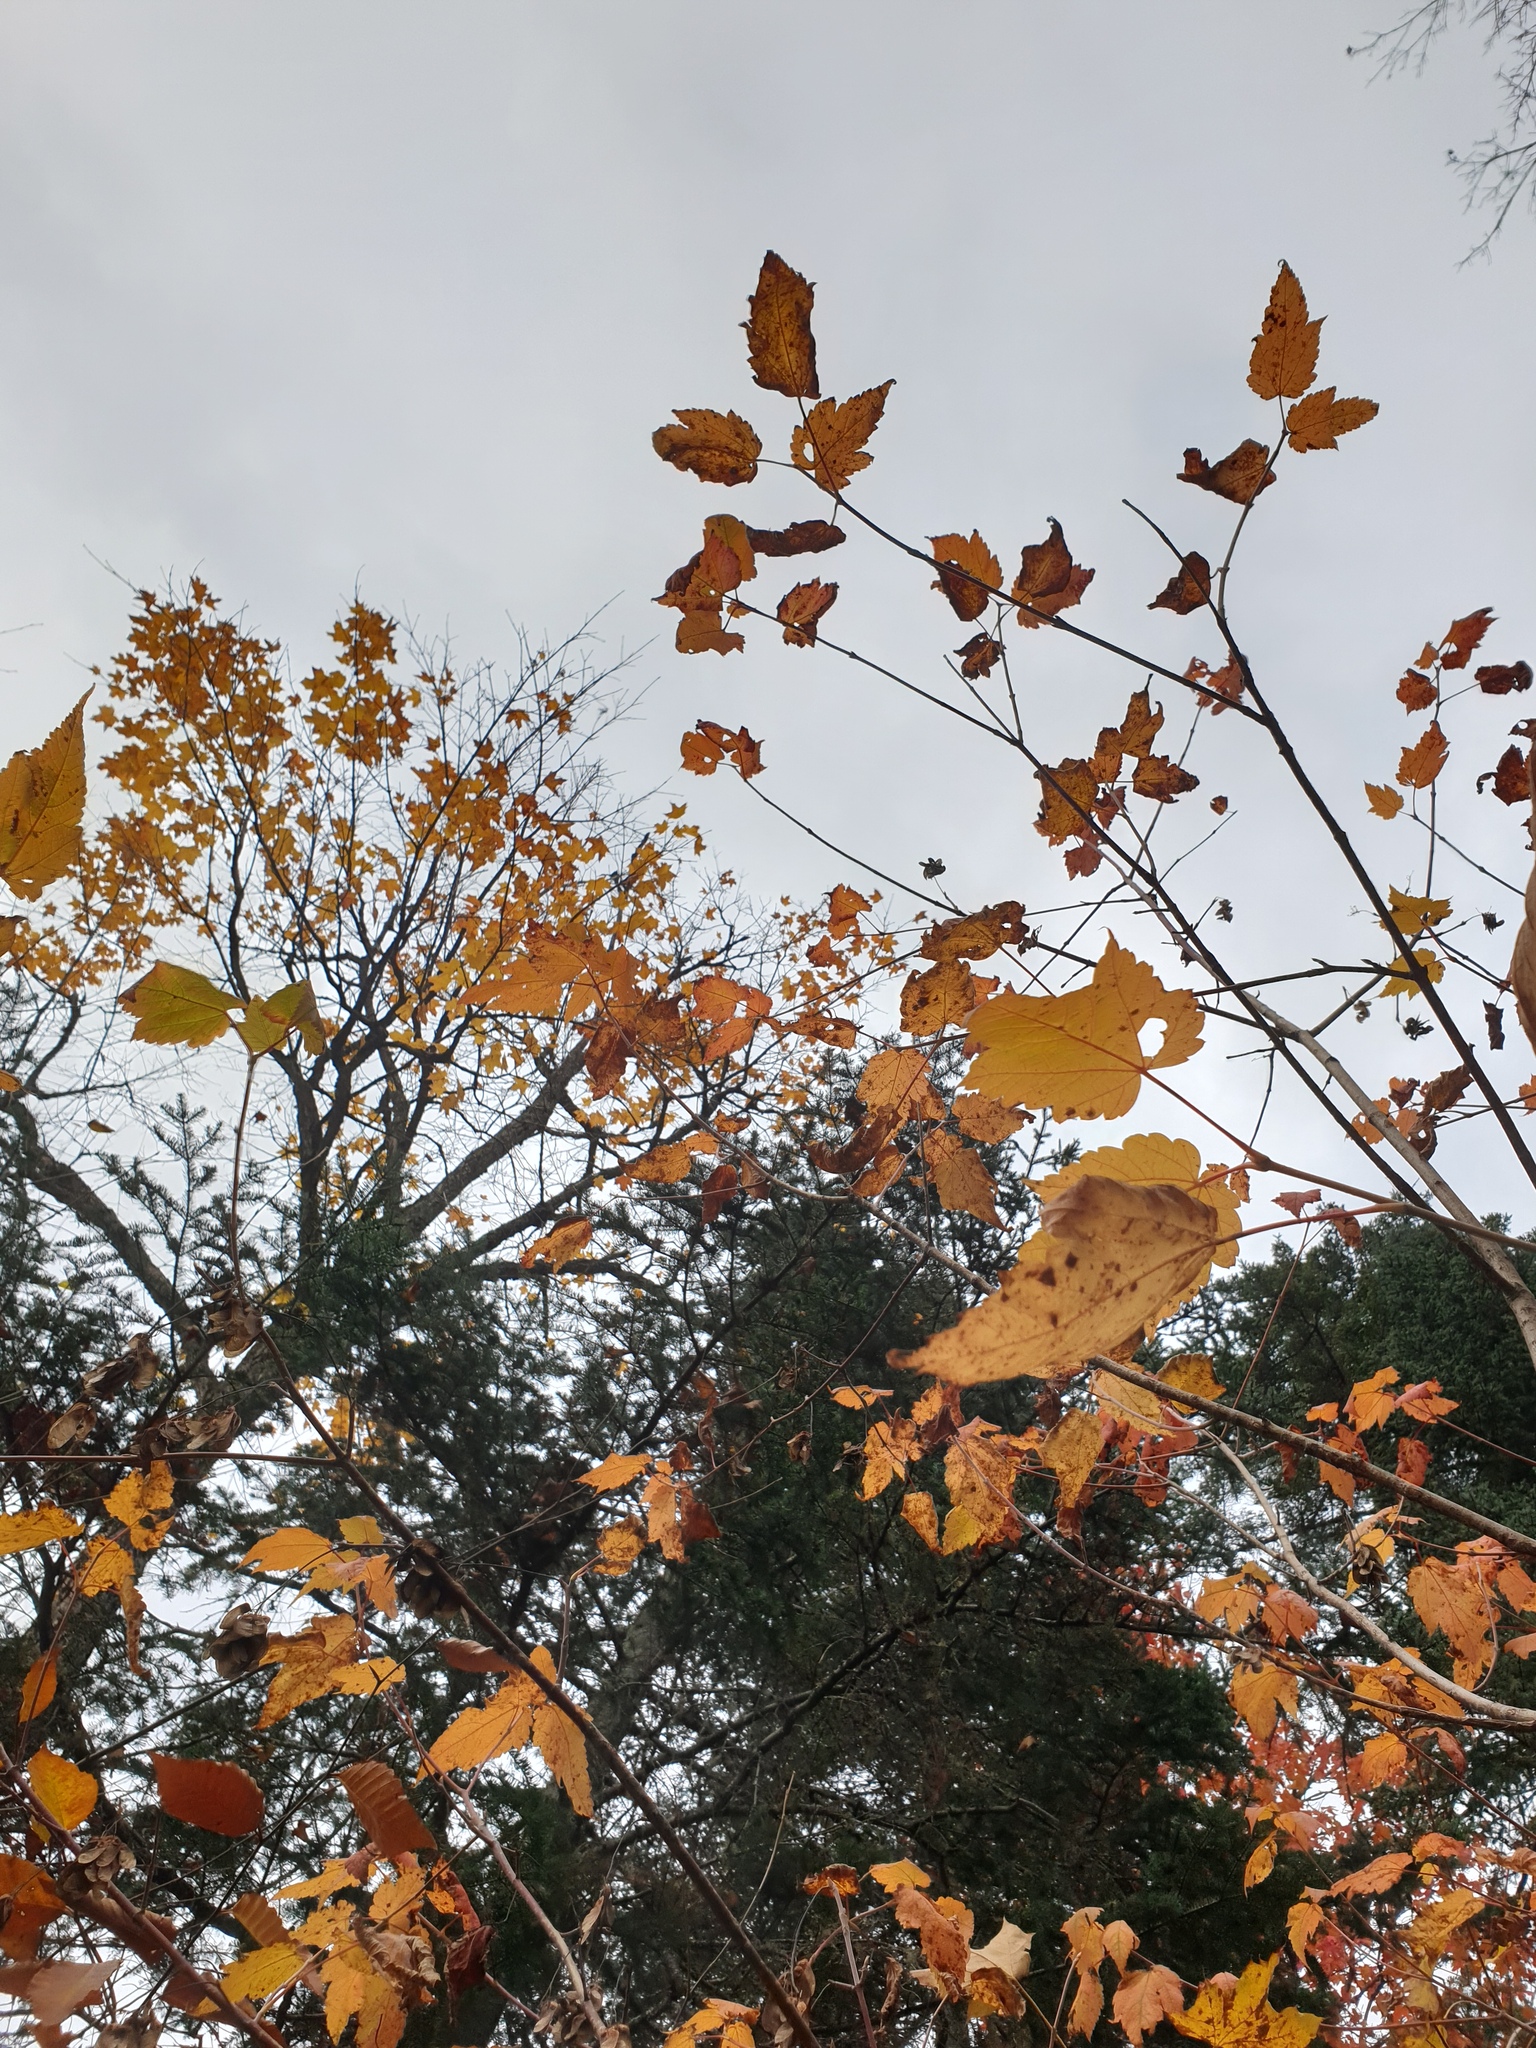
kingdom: Plantae
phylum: Tracheophyta
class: Magnoliopsida
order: Sapindales
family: Sapindaceae
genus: Acer
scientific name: Acer spicatum
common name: Mountain maple
